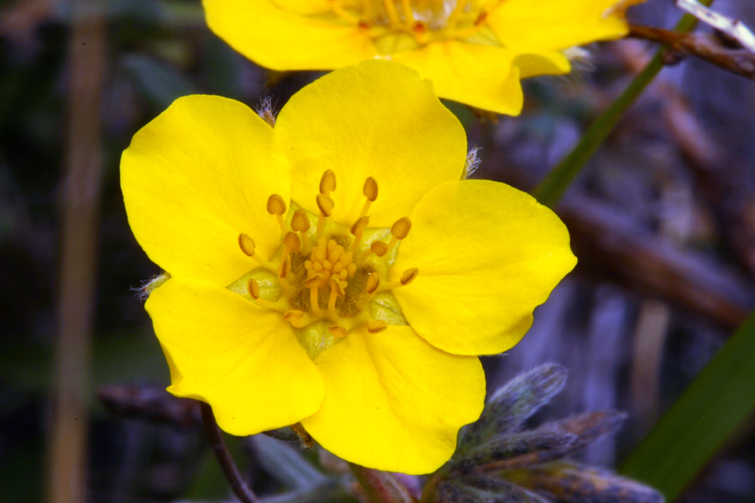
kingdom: Plantae
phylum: Tracheophyta
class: Magnoliopsida
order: Rosales
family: Rosaceae
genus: Dasiphora
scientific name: Dasiphora fruticosa
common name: Shrubby cinquefoil
